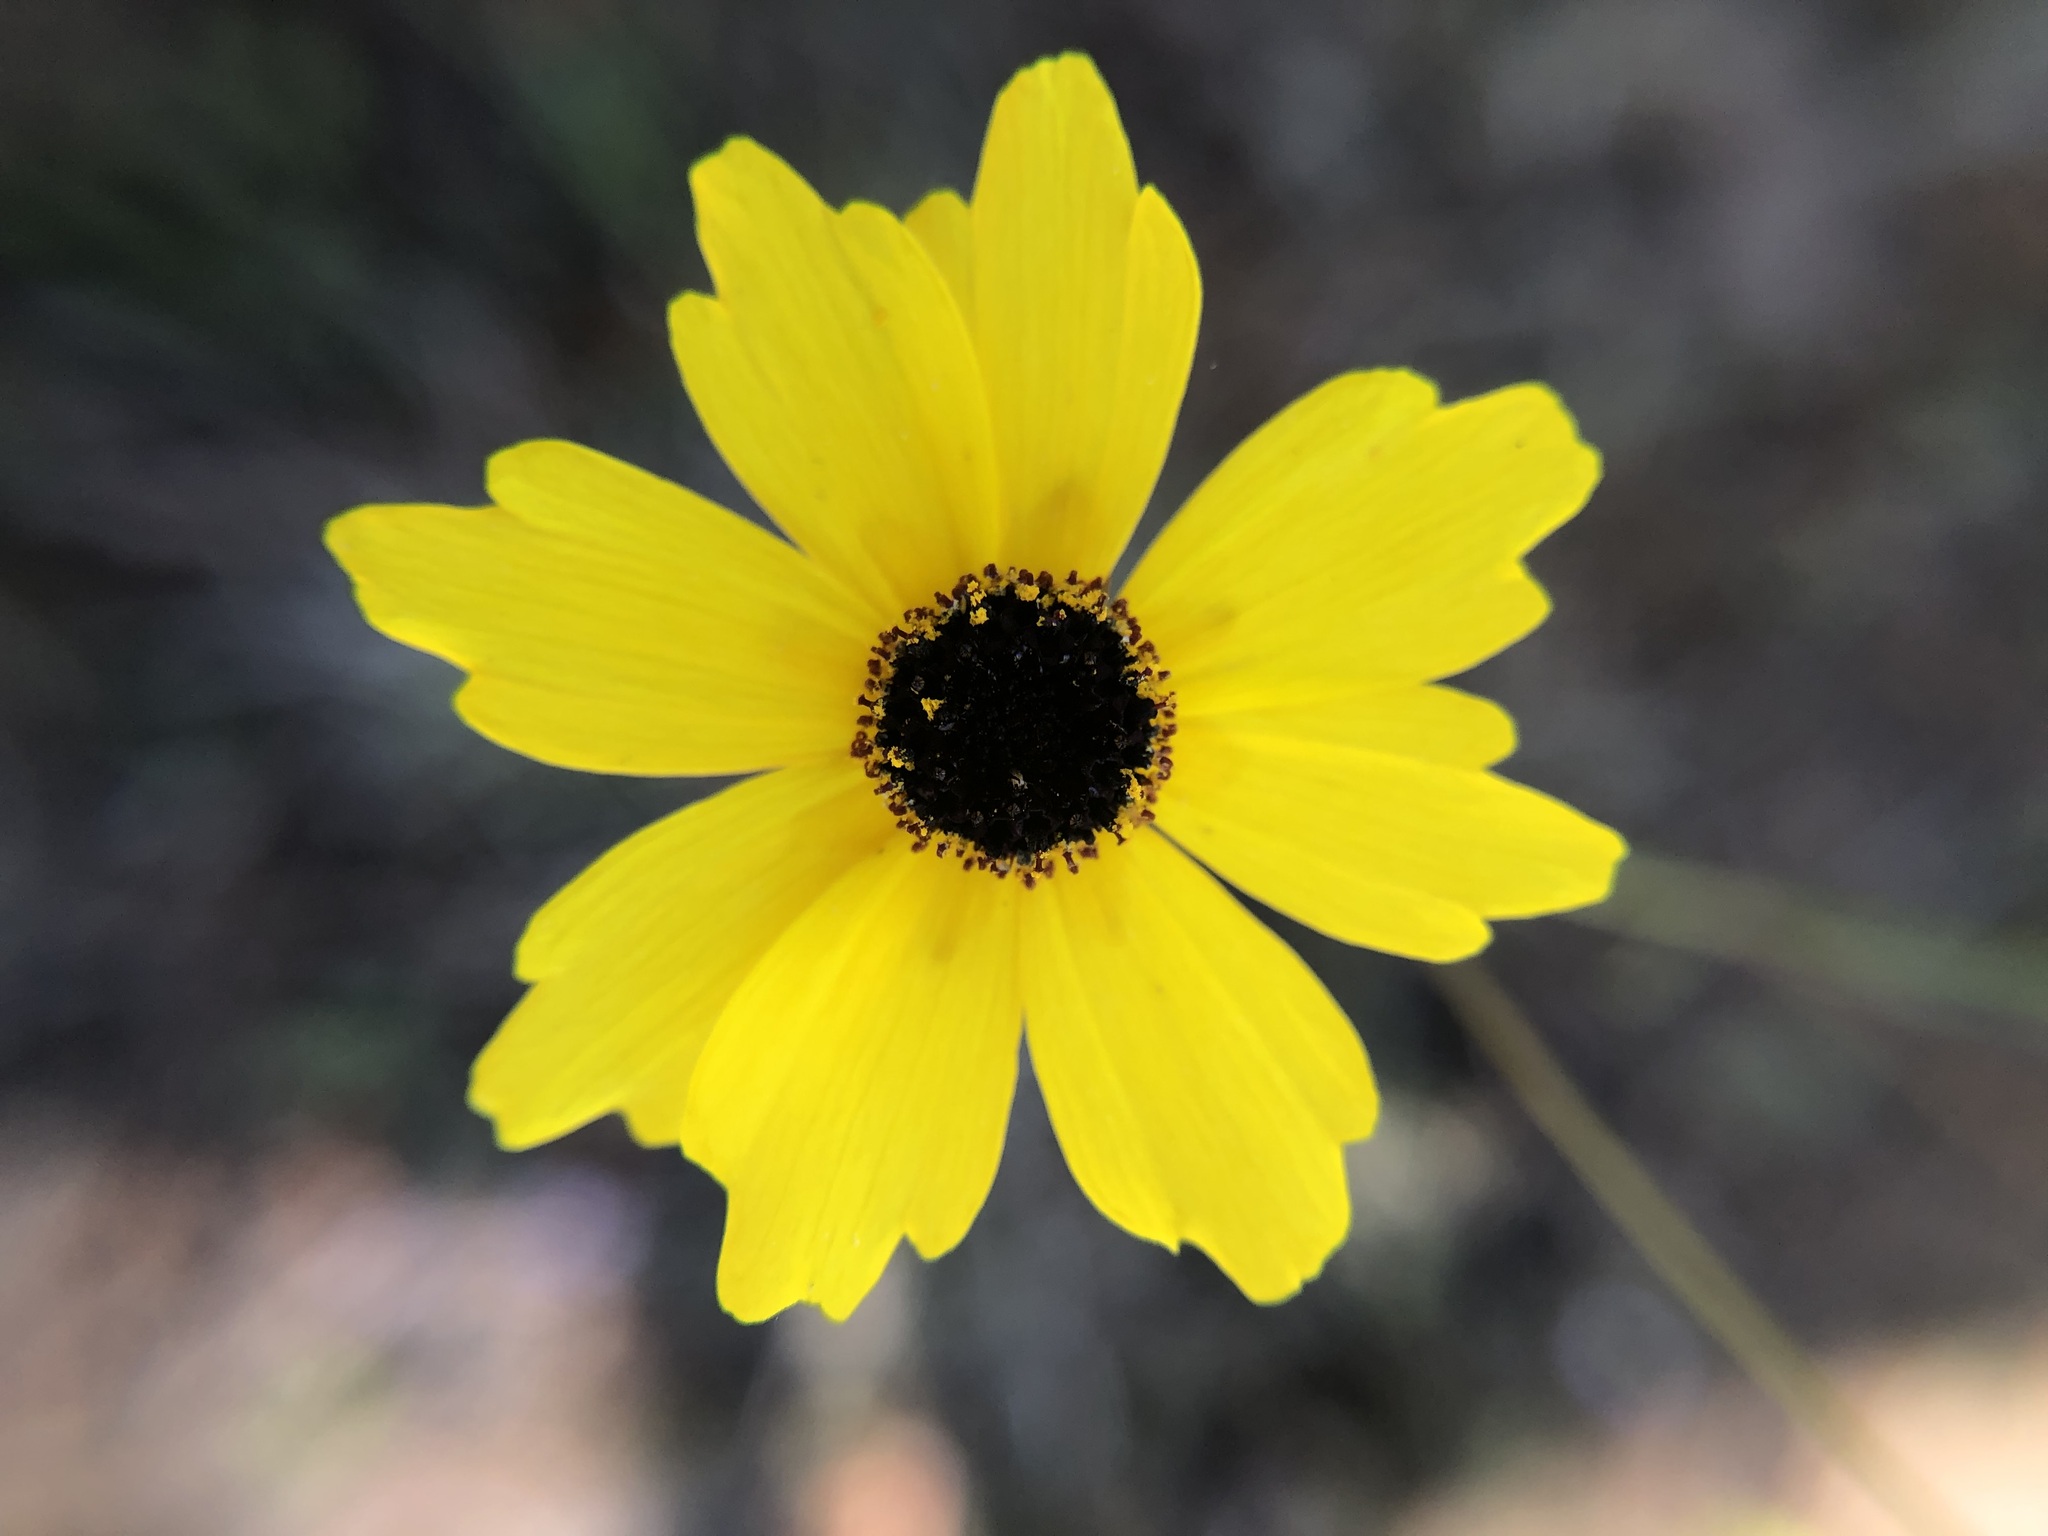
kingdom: Plantae
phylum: Tracheophyta
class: Magnoliopsida
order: Asterales
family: Asteraceae
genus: Coreopsis
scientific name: Coreopsis leavenworthii
